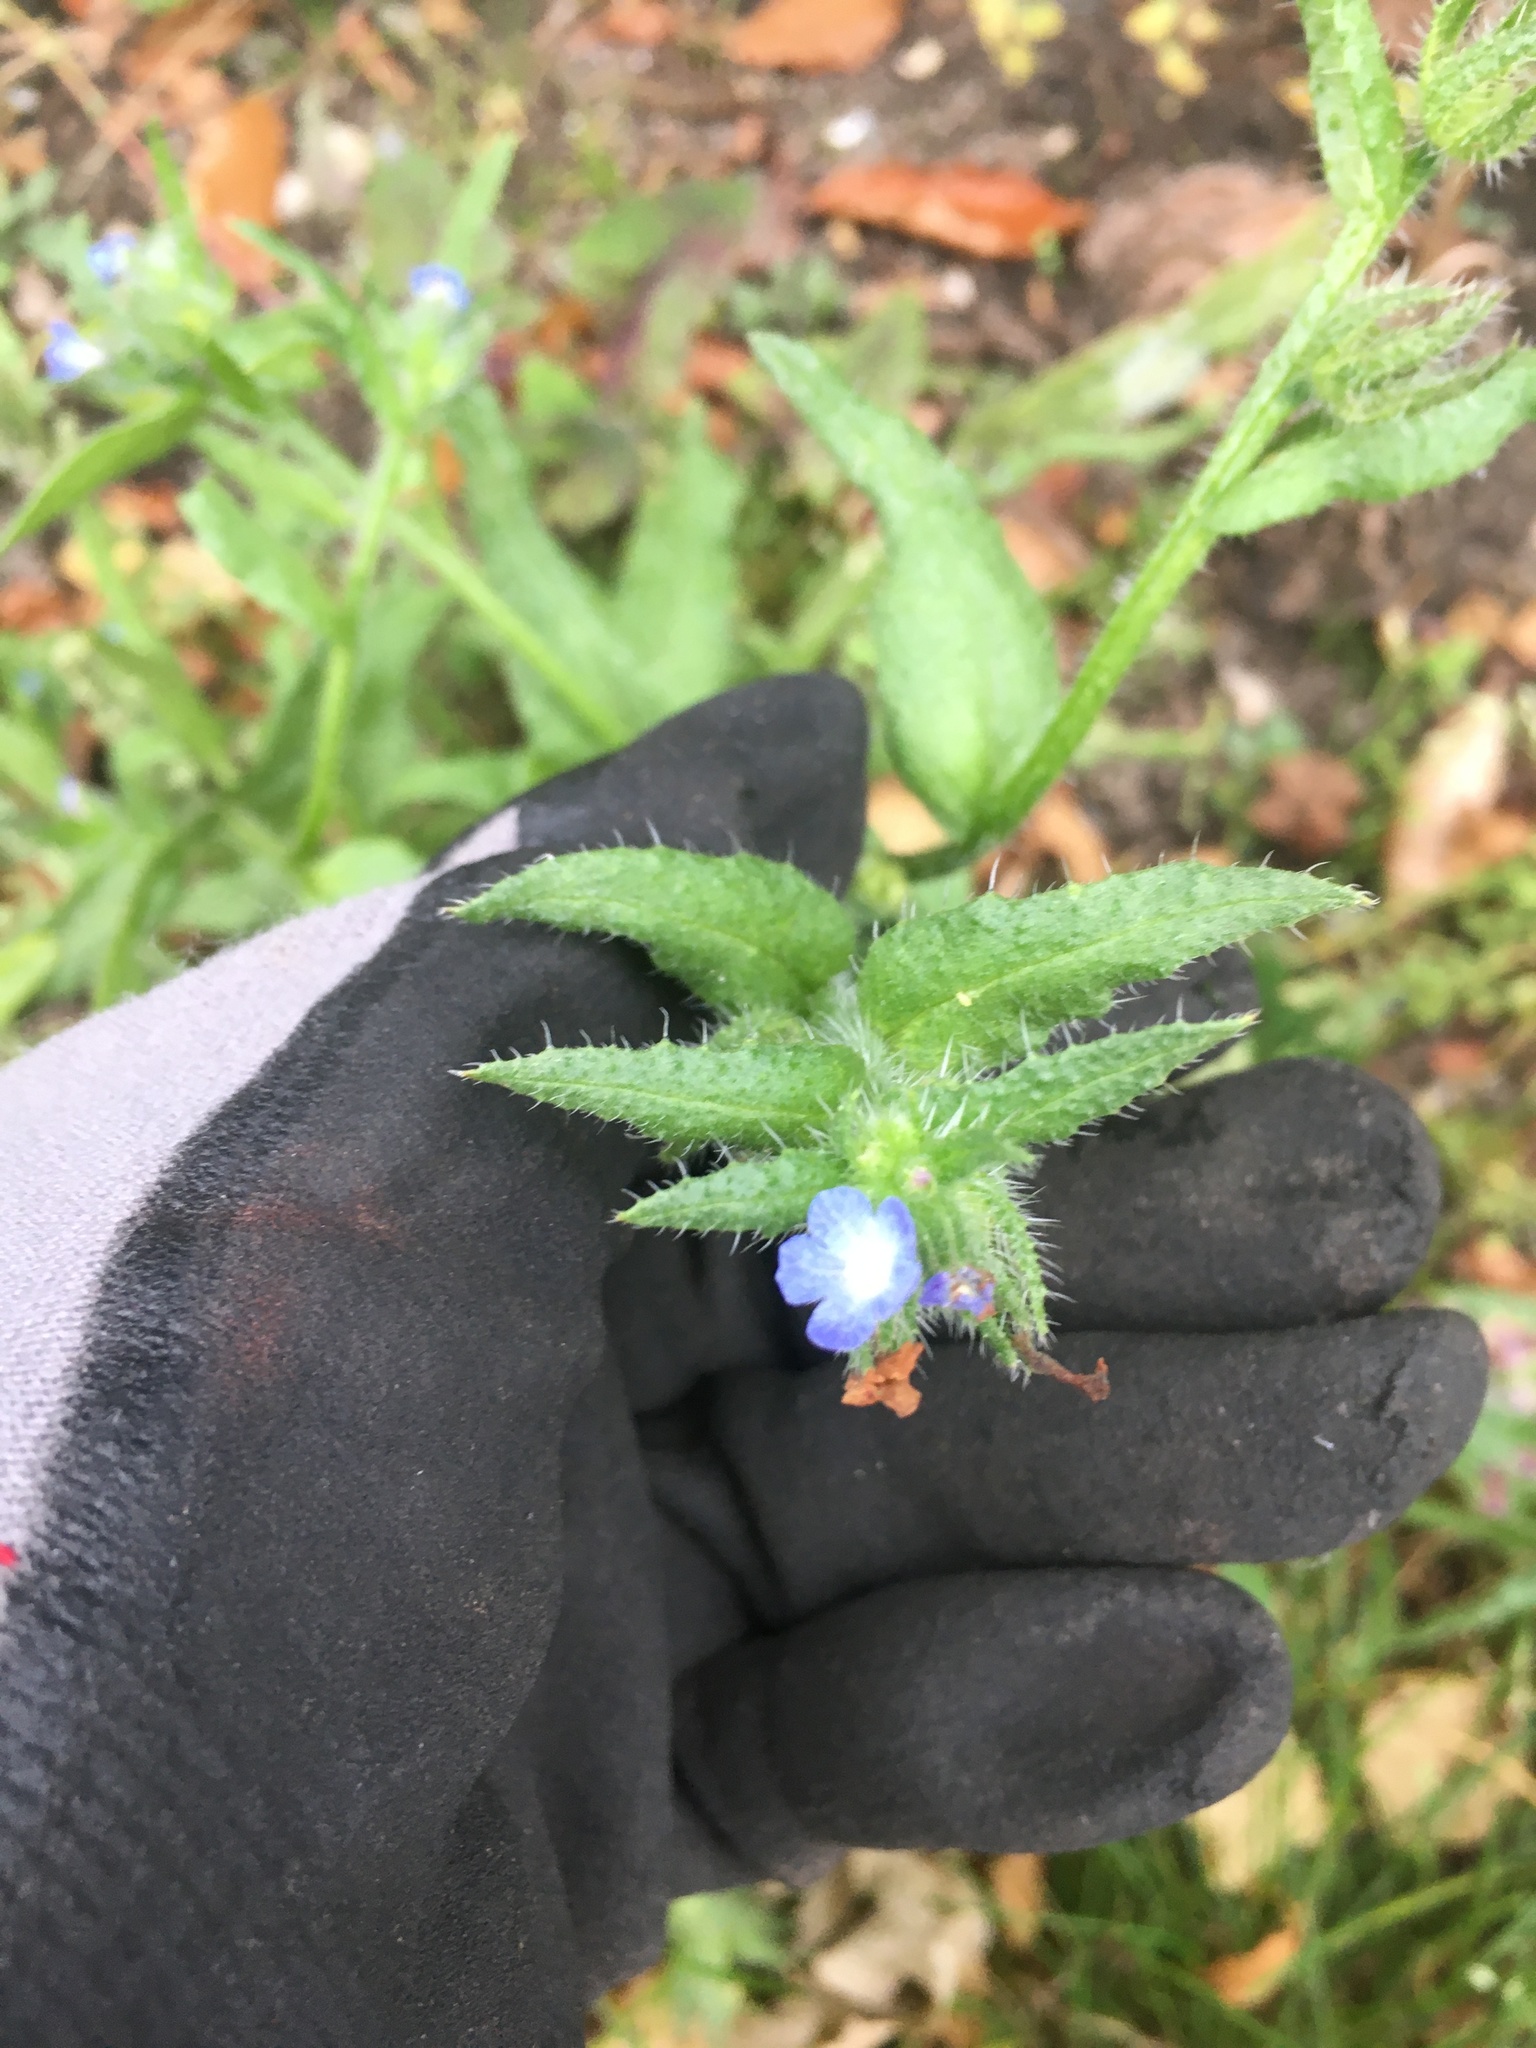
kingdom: Plantae
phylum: Tracheophyta
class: Magnoliopsida
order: Boraginales
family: Boraginaceae
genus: Lycopsis
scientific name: Lycopsis arvensis
